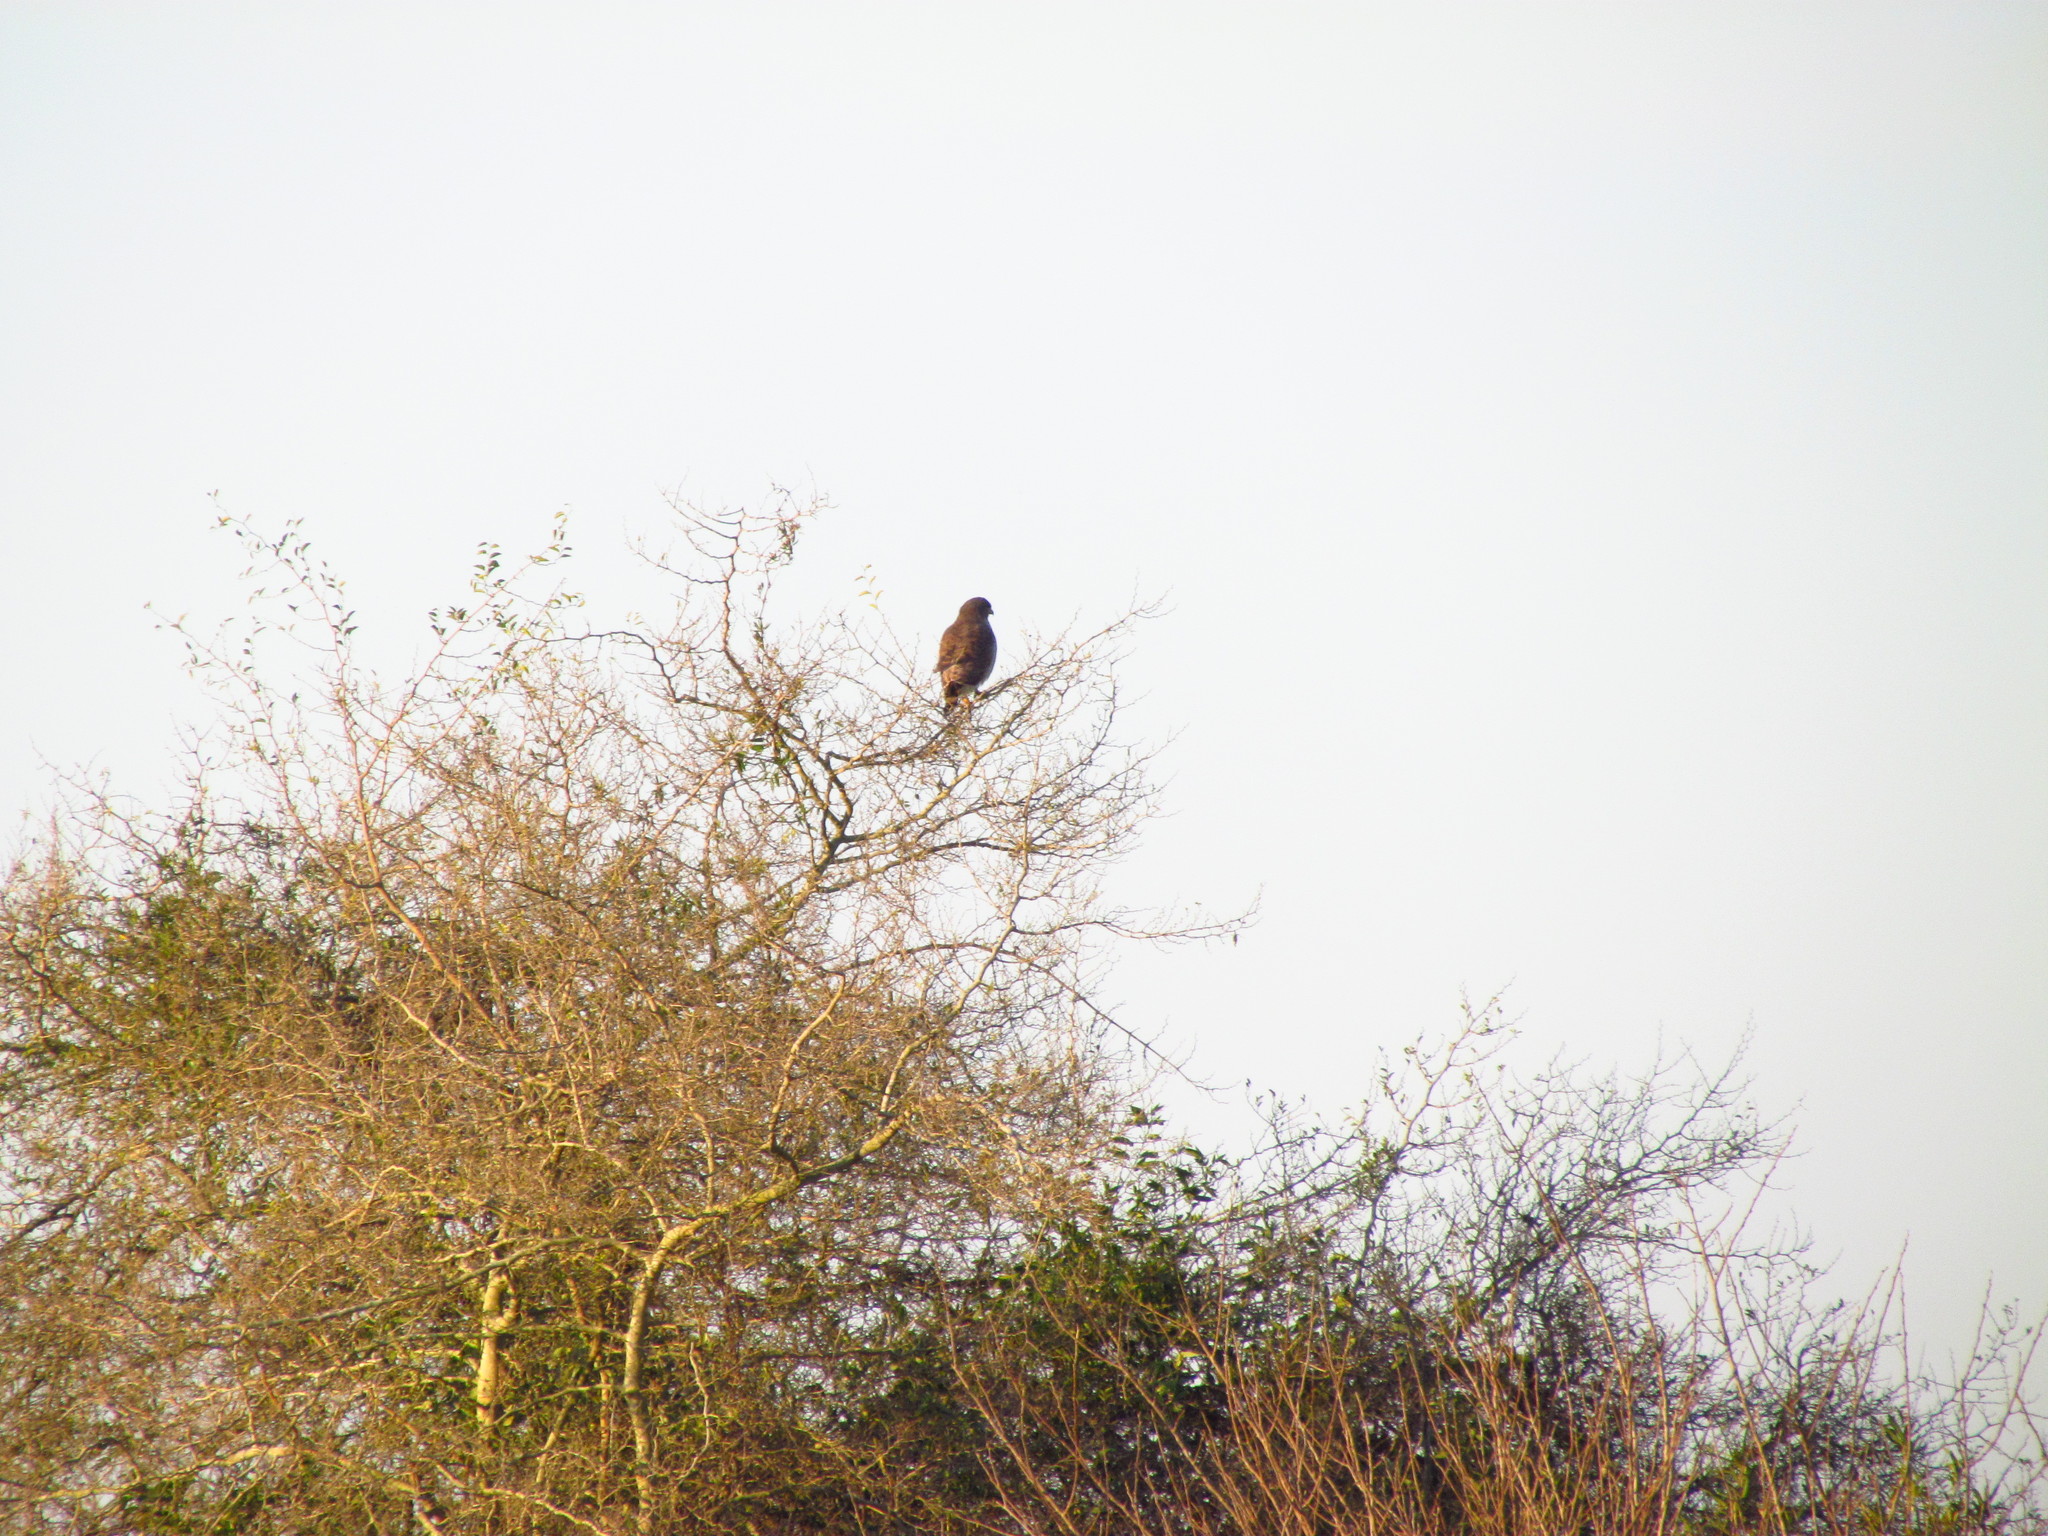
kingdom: Animalia
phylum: Chordata
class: Aves
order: Accipitriformes
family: Accipitridae
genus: Rupornis
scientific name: Rupornis magnirostris
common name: Roadside hawk
